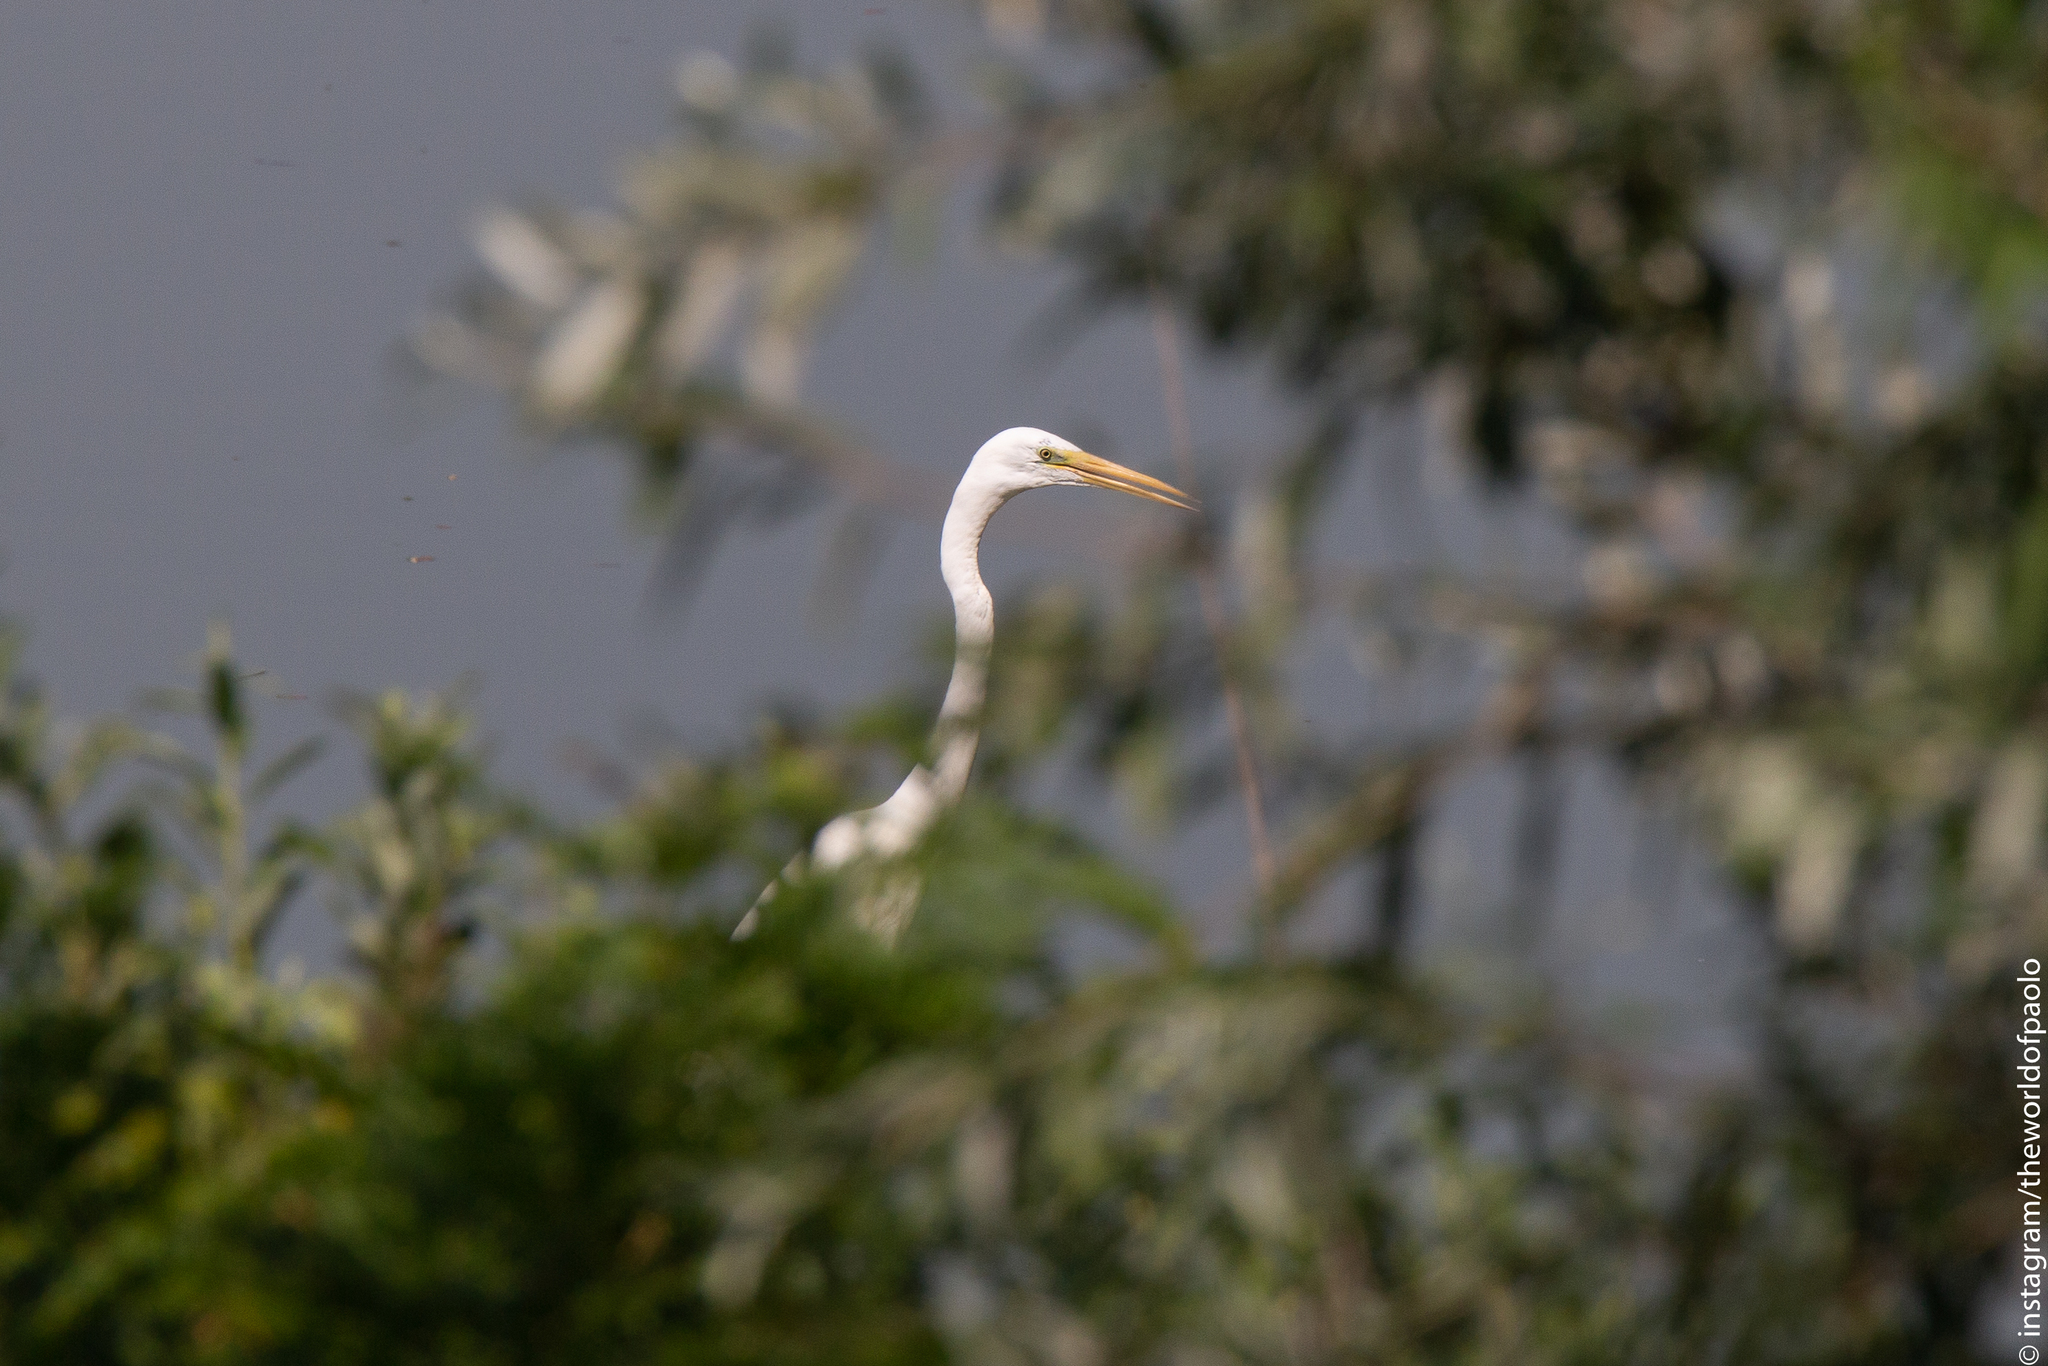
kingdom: Animalia
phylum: Chordata
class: Aves
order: Pelecaniformes
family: Ardeidae
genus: Ardea
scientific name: Ardea alba
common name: Great egret
